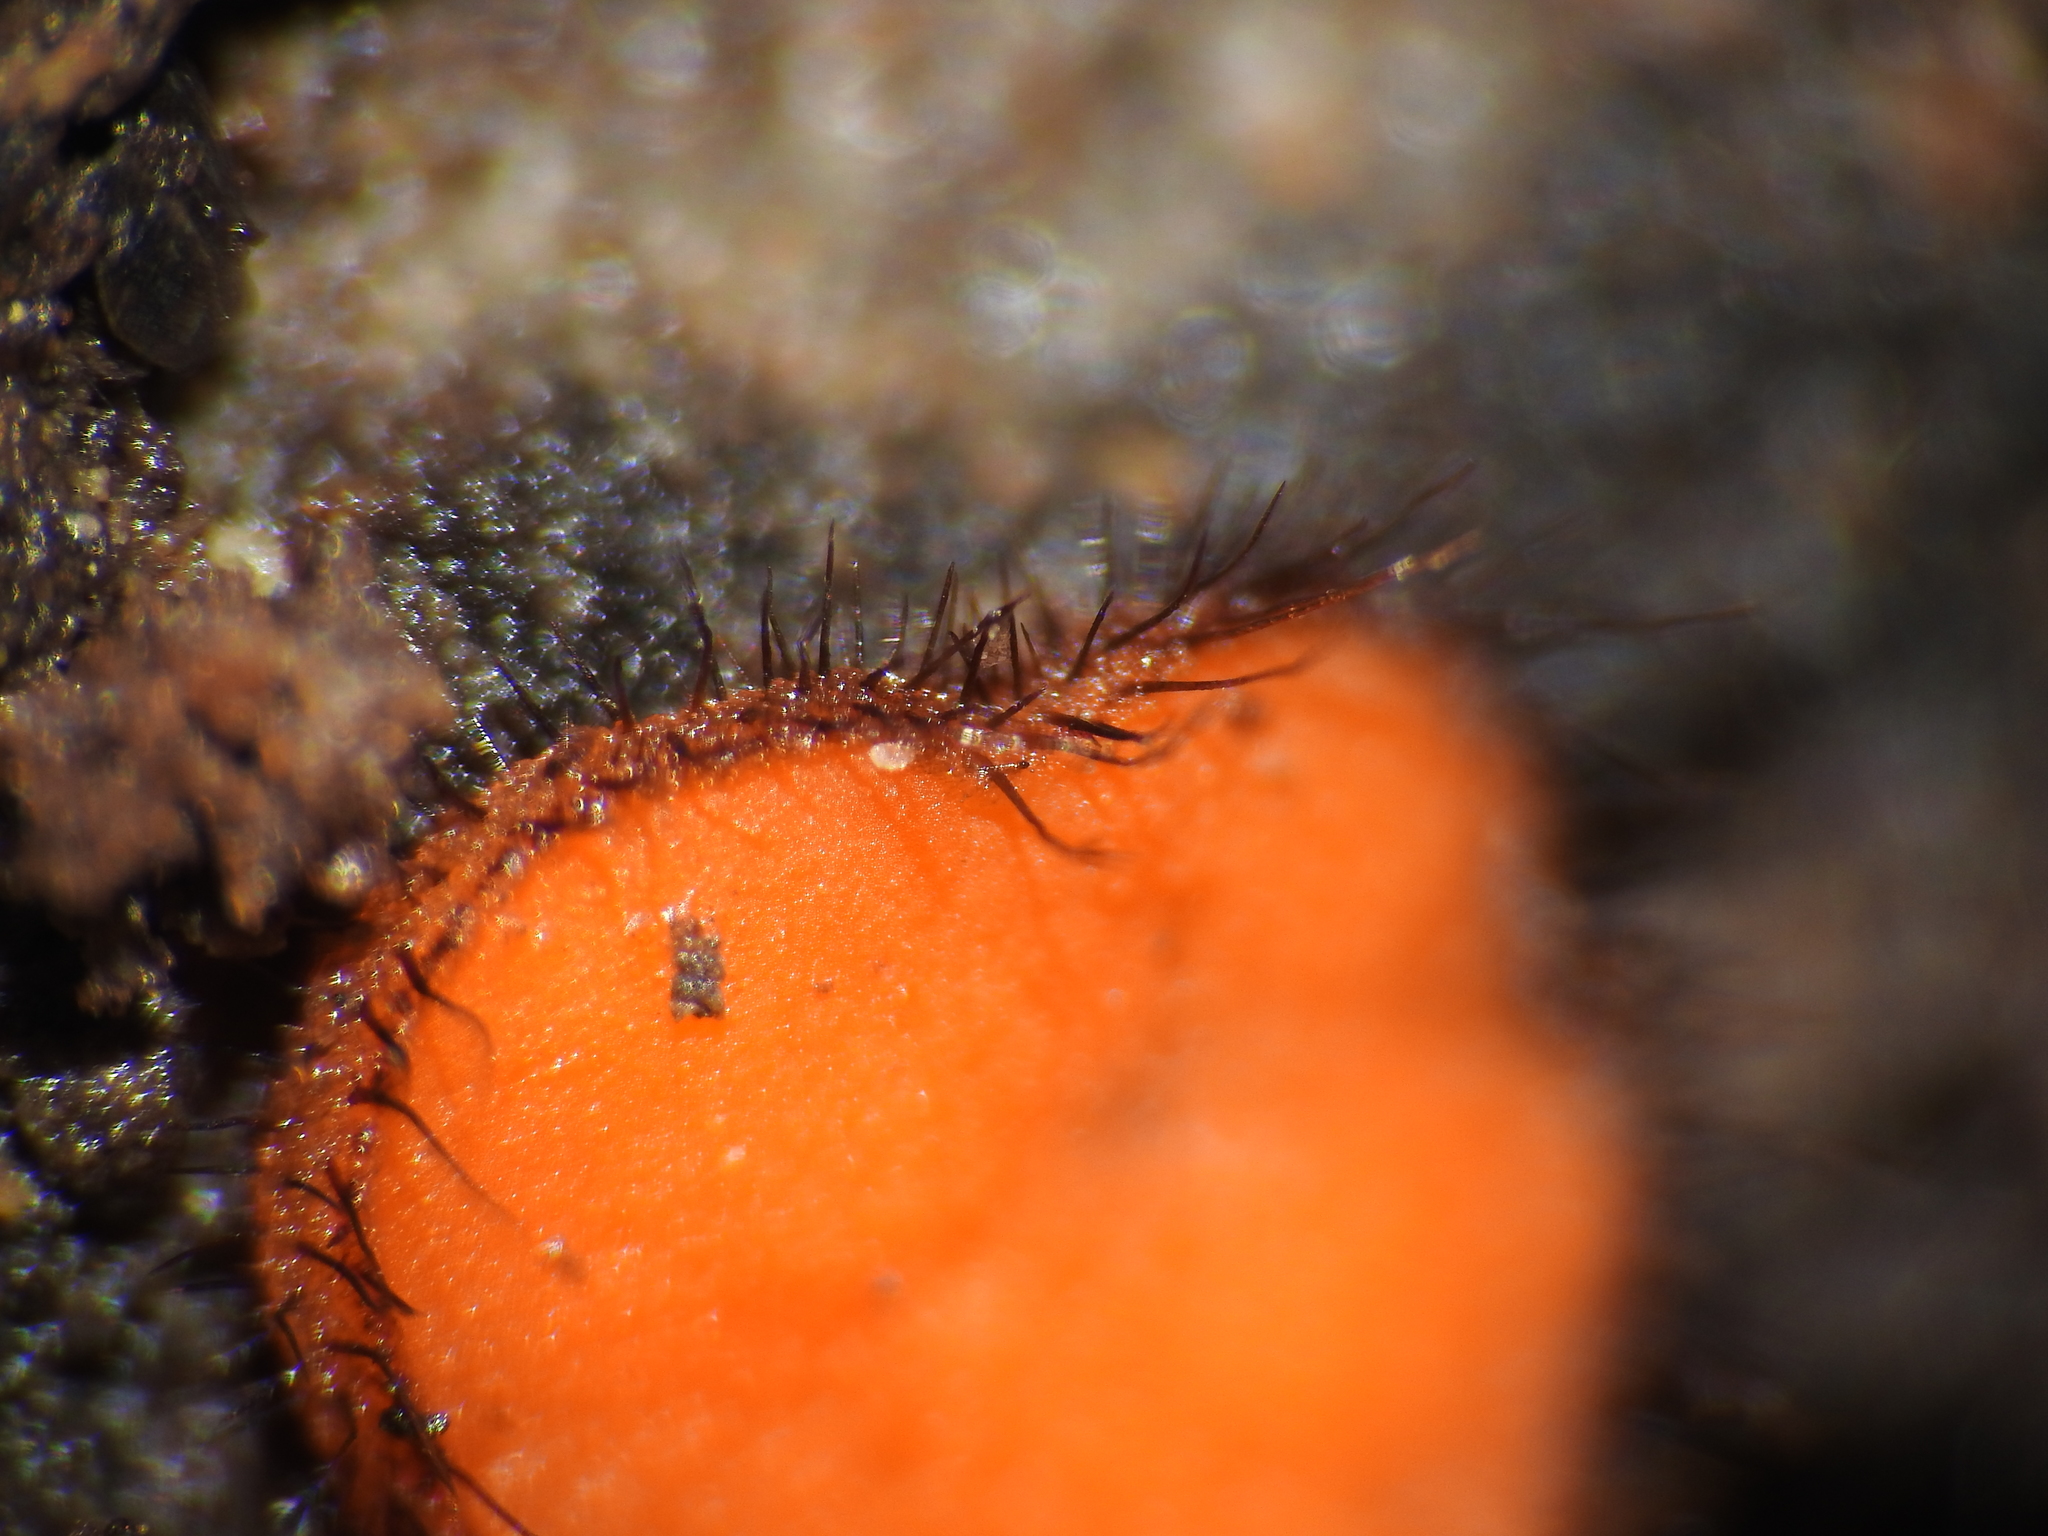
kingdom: Fungi
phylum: Ascomycota
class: Pezizomycetes
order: Pezizales
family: Pyronemataceae
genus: Scutellinia
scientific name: Scutellinia
